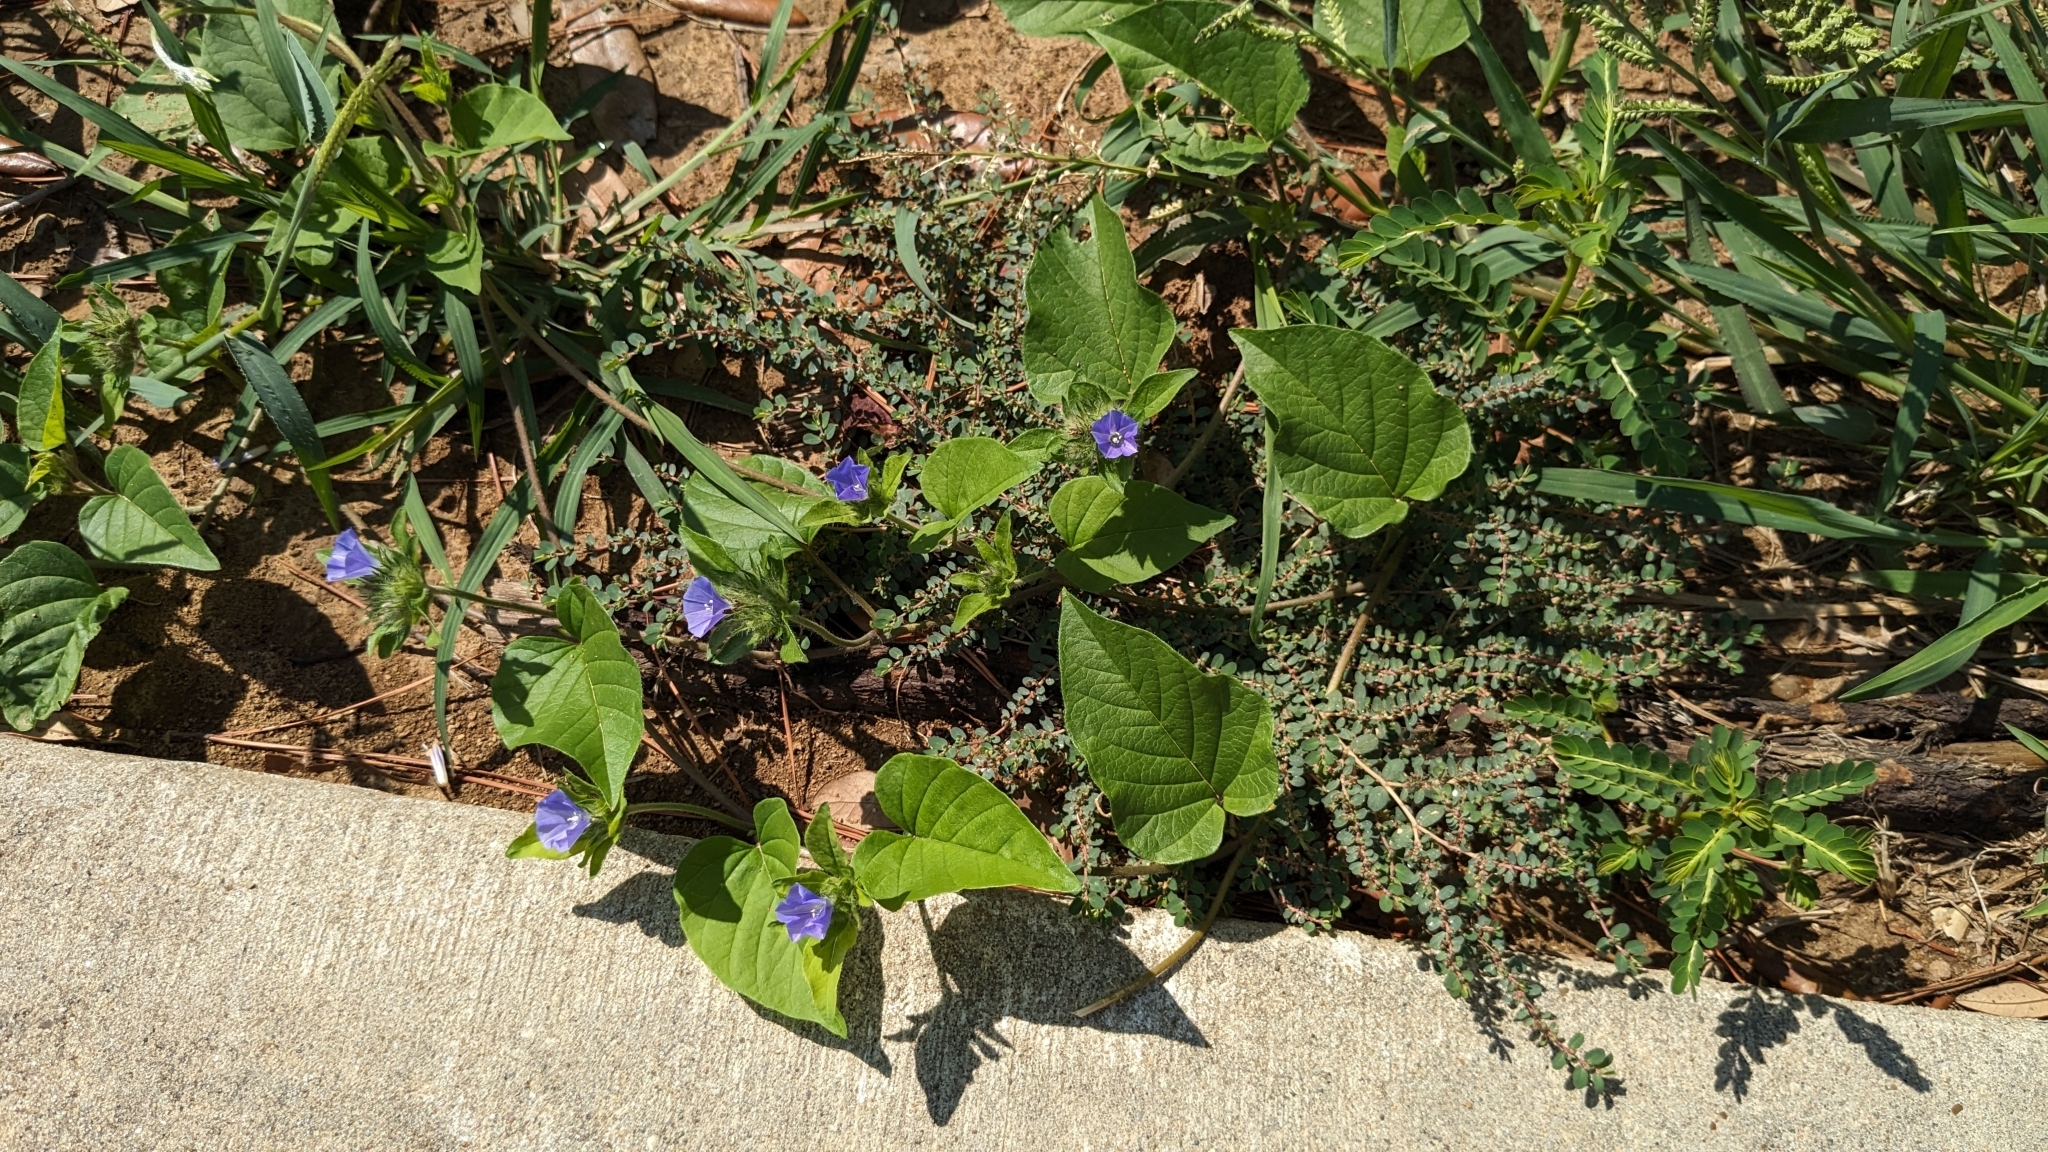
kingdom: Plantae
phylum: Tracheophyta
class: Magnoliopsida
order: Solanales
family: Convolvulaceae
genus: Jacquemontia
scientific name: Jacquemontia tamnifolia
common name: Hairy clustervine
